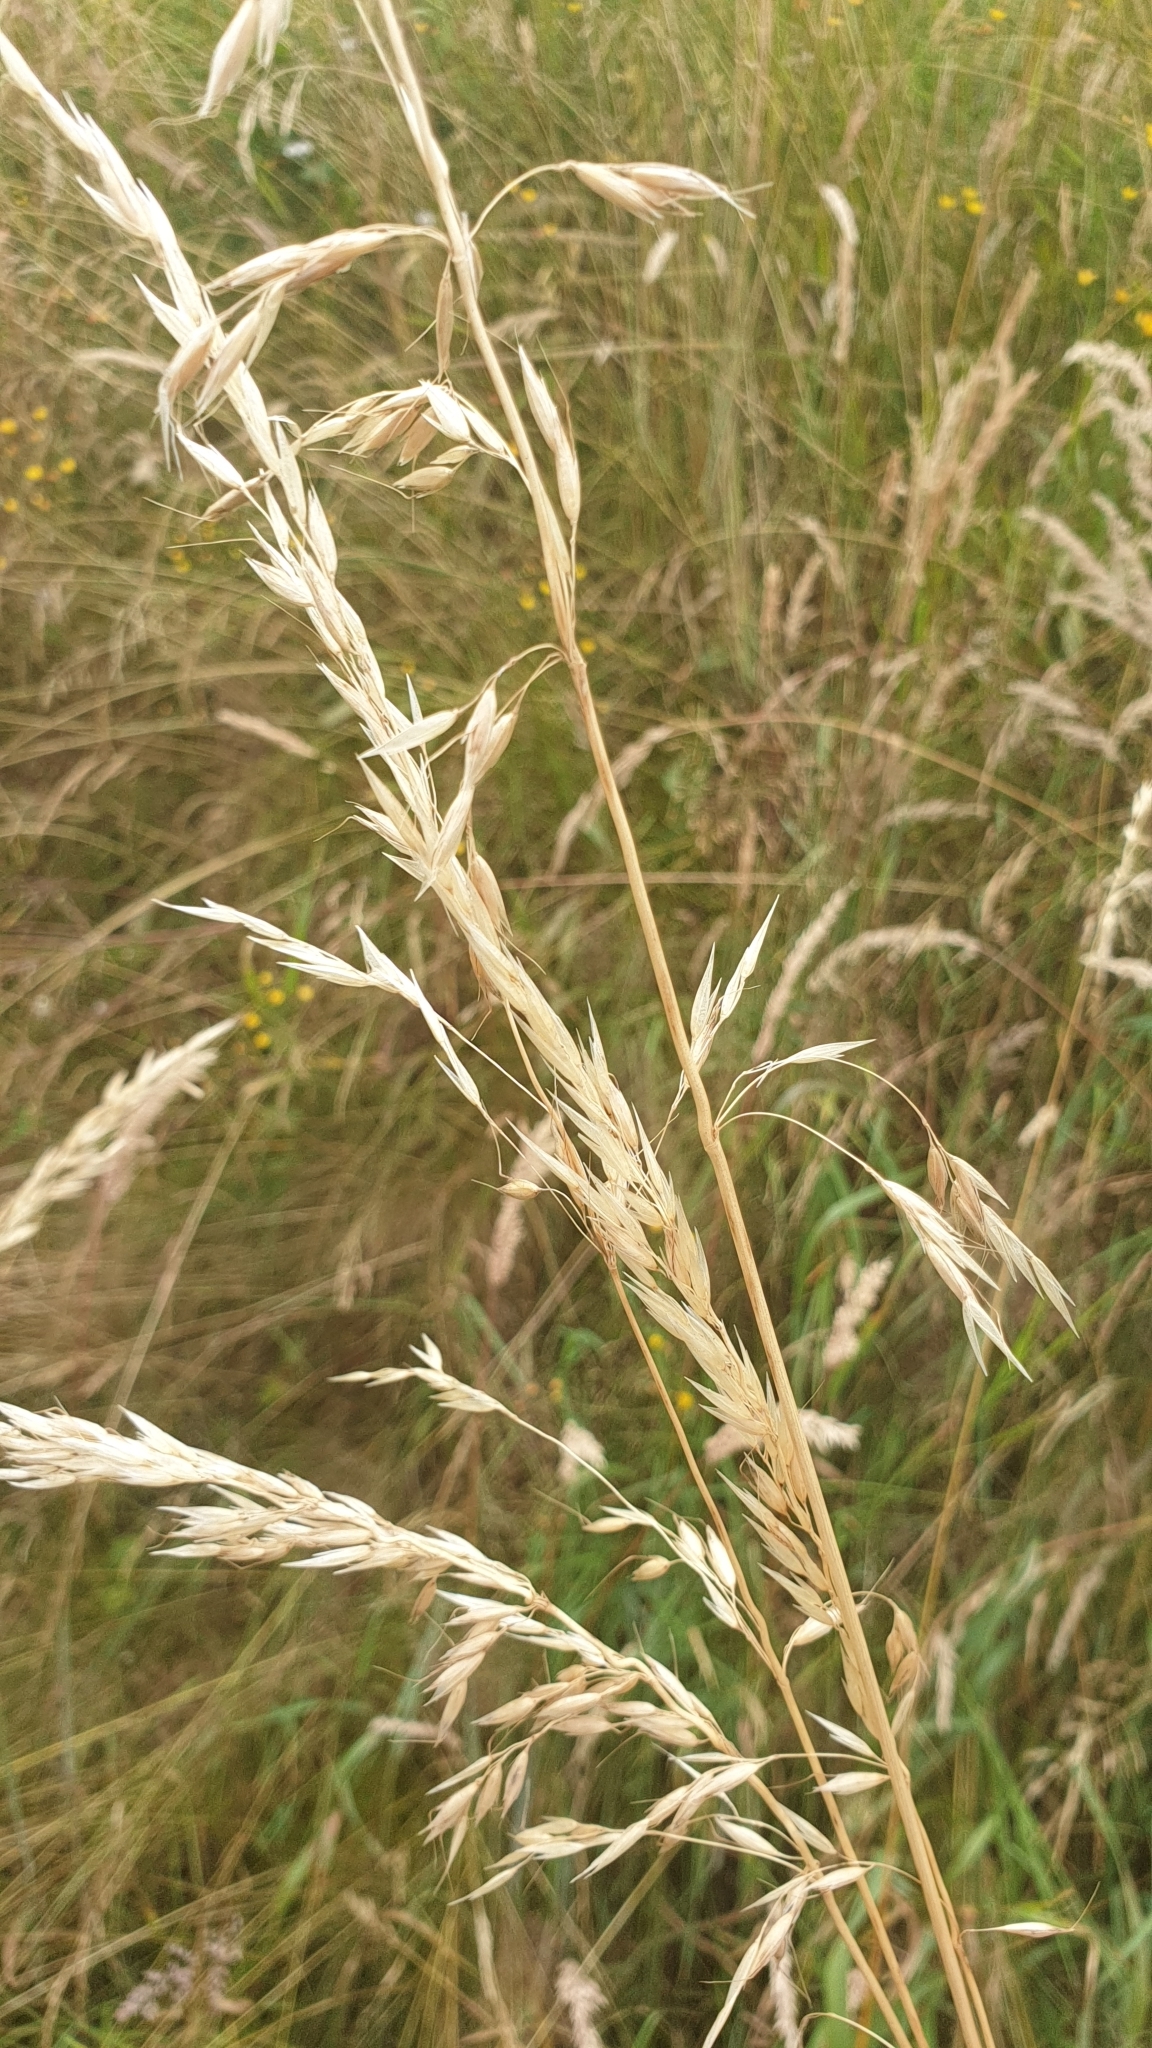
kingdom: Plantae
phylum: Tracheophyta
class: Liliopsida
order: Poales
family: Poaceae
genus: Arrhenatherum
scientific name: Arrhenatherum elatius
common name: Tall oatgrass
